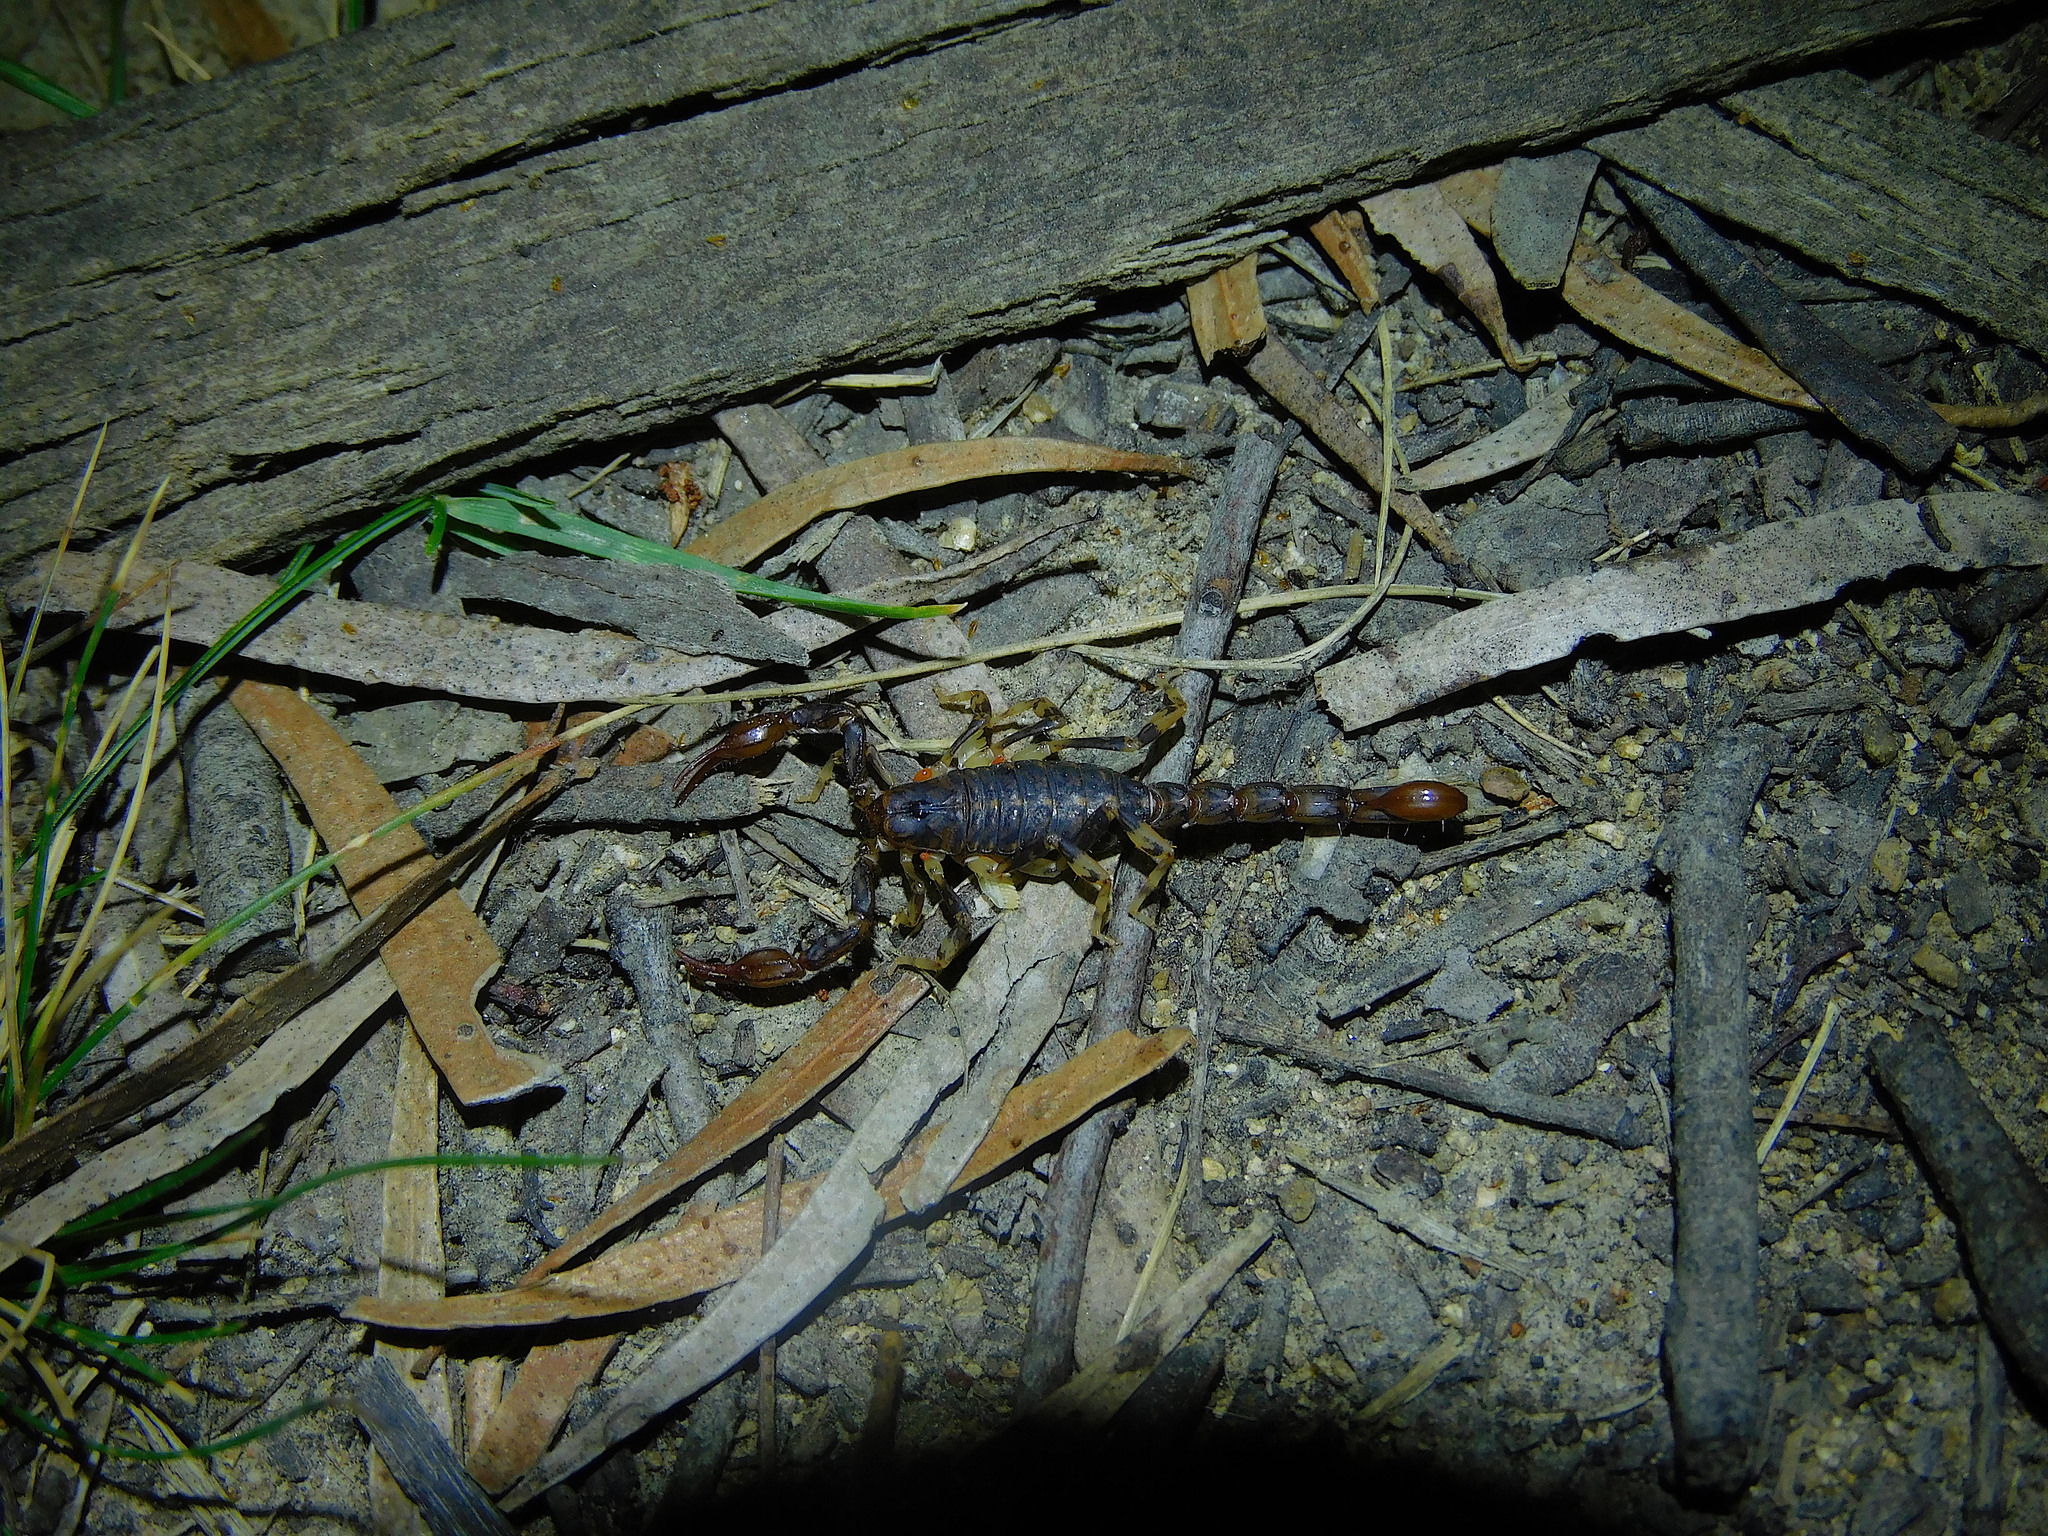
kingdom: Animalia
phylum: Arthropoda
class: Arachnida
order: Scorpiones
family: Bothriuridae
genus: Cercophonius
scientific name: Cercophonius squama
